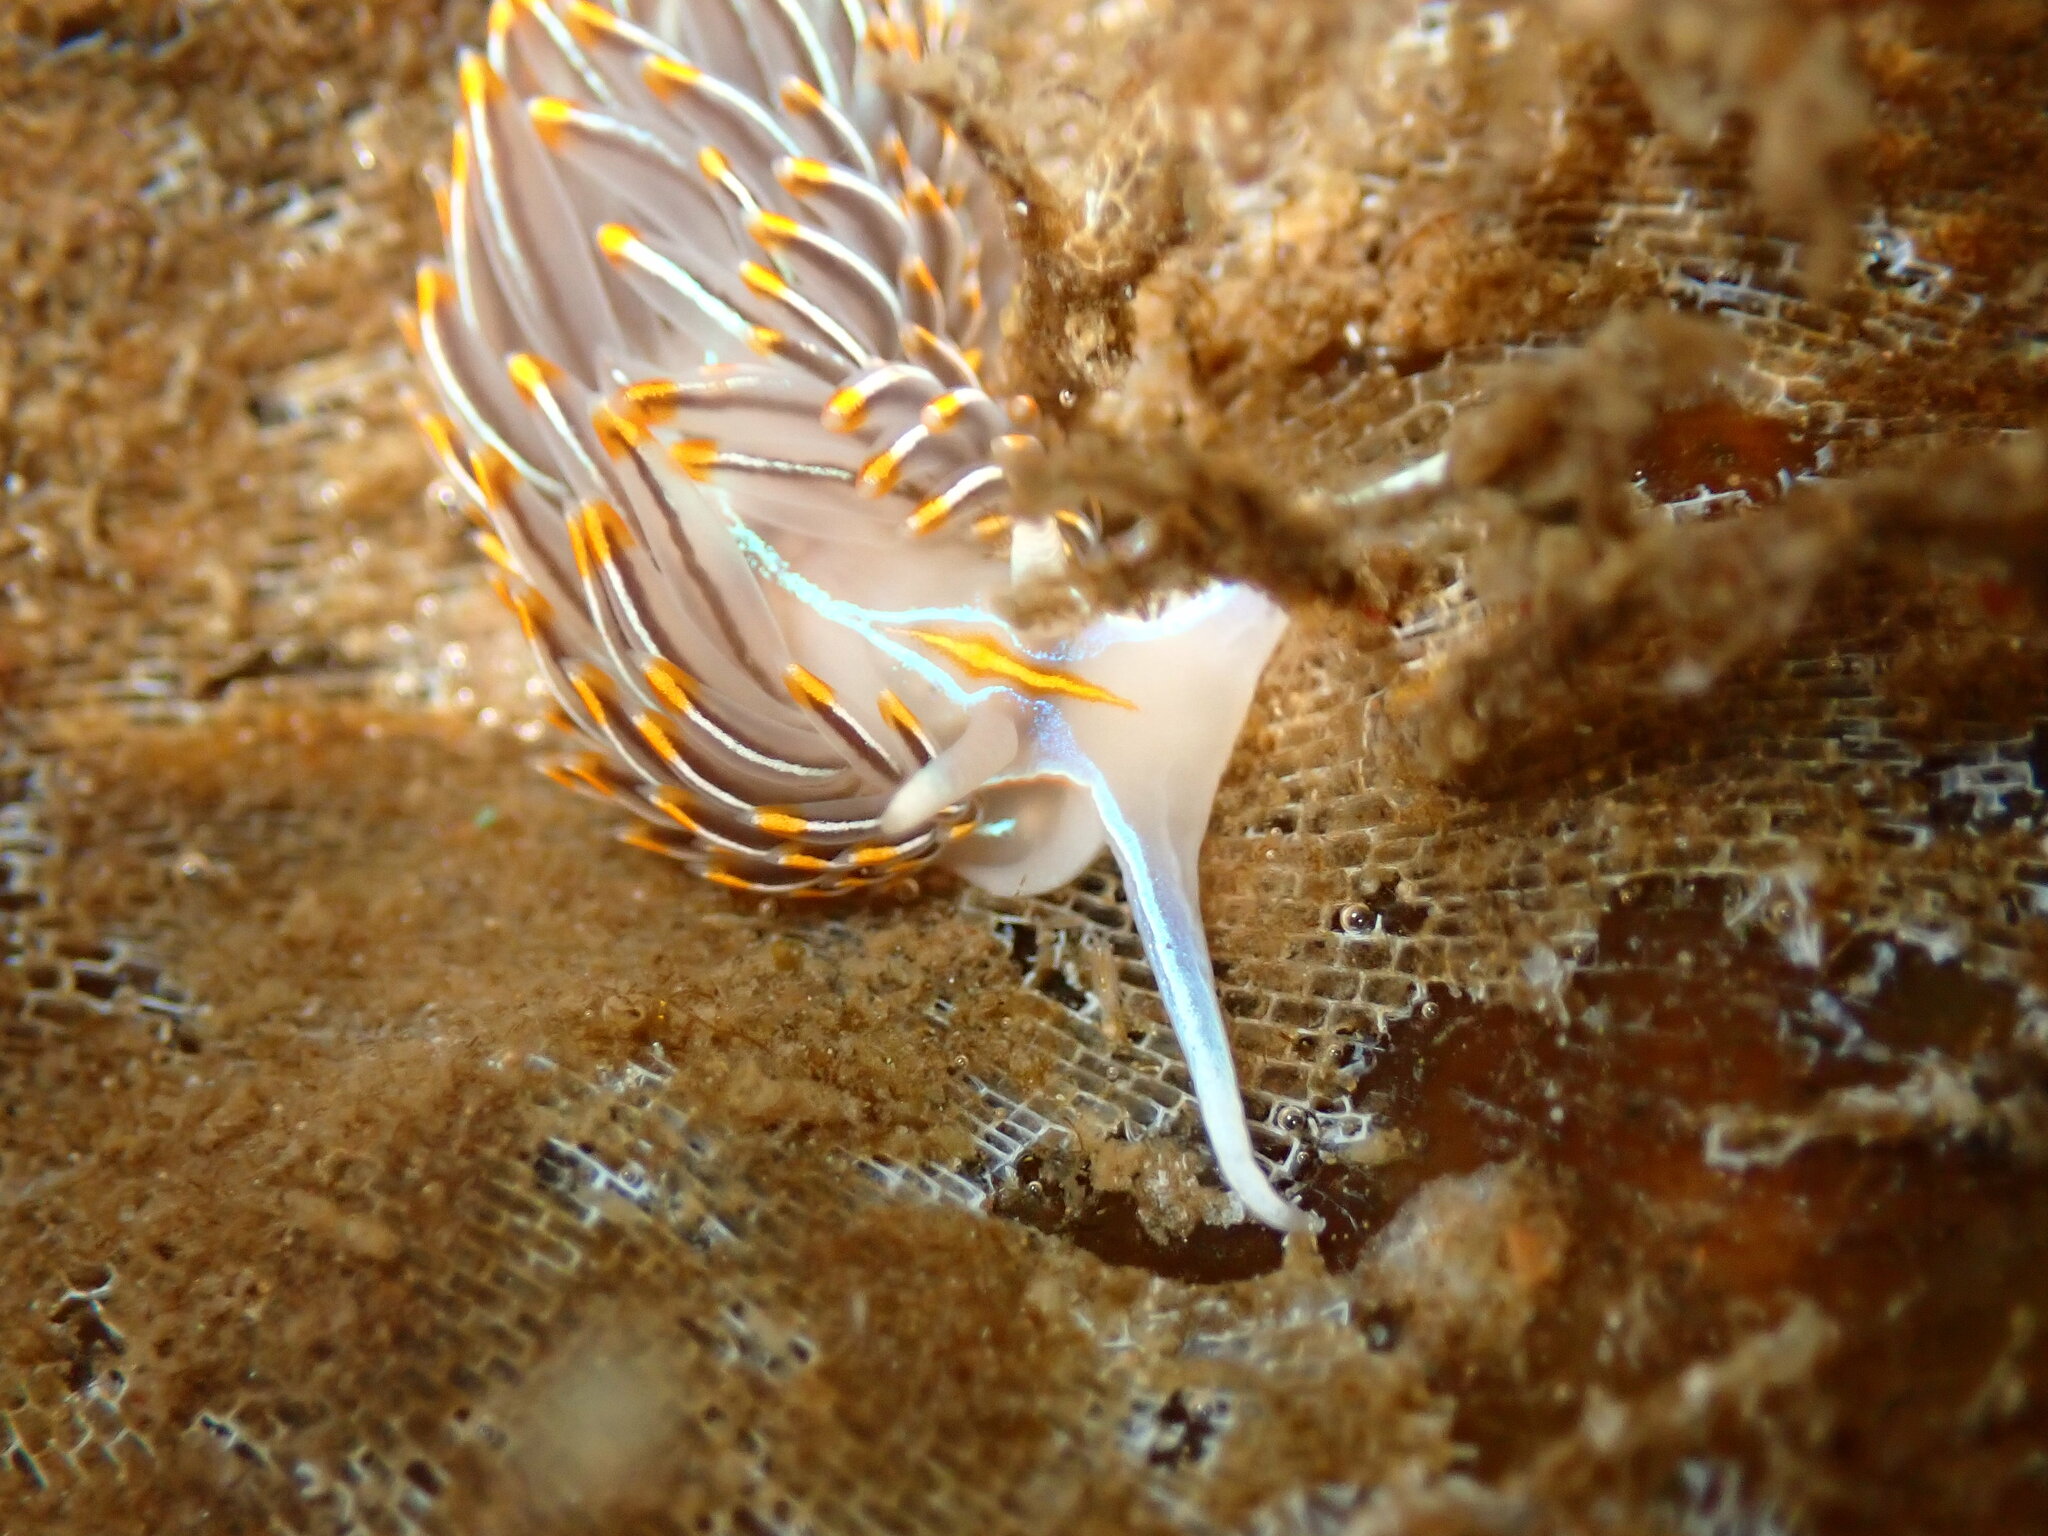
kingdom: Animalia
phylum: Mollusca
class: Gastropoda
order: Nudibranchia
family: Myrrhinidae
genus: Hermissenda
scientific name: Hermissenda crassicornis
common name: Hermissenda
